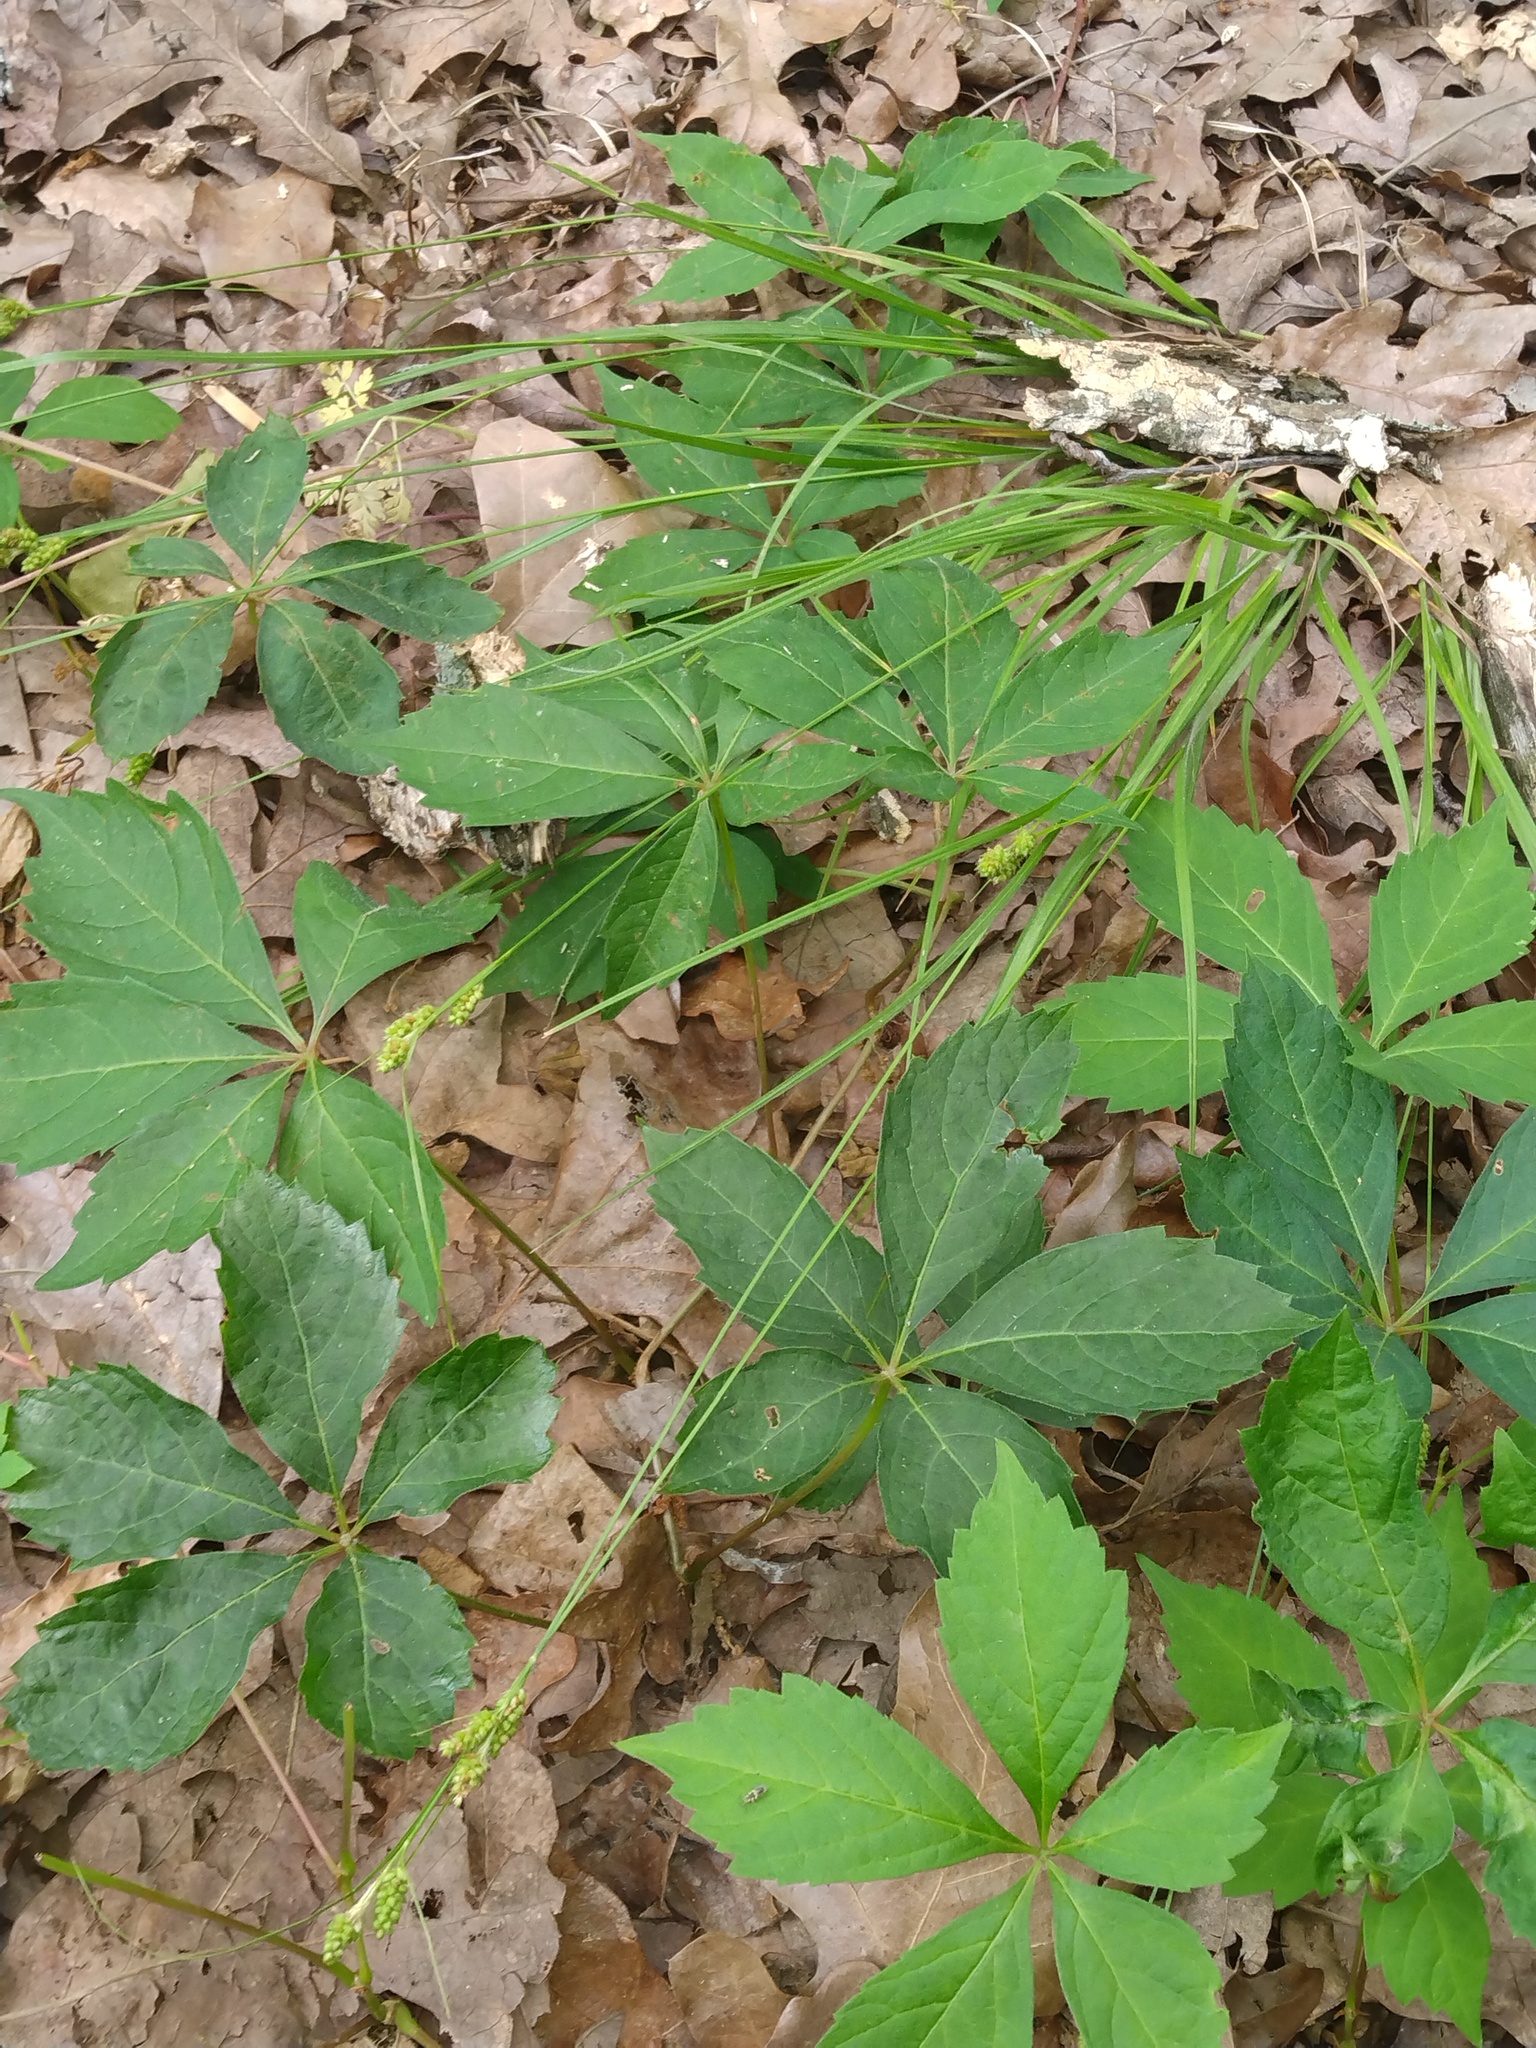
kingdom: Plantae
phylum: Tracheophyta
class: Magnoliopsida
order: Vitales
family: Vitaceae
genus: Parthenocissus
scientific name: Parthenocissus quinquefolia
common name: Virginia-creeper
